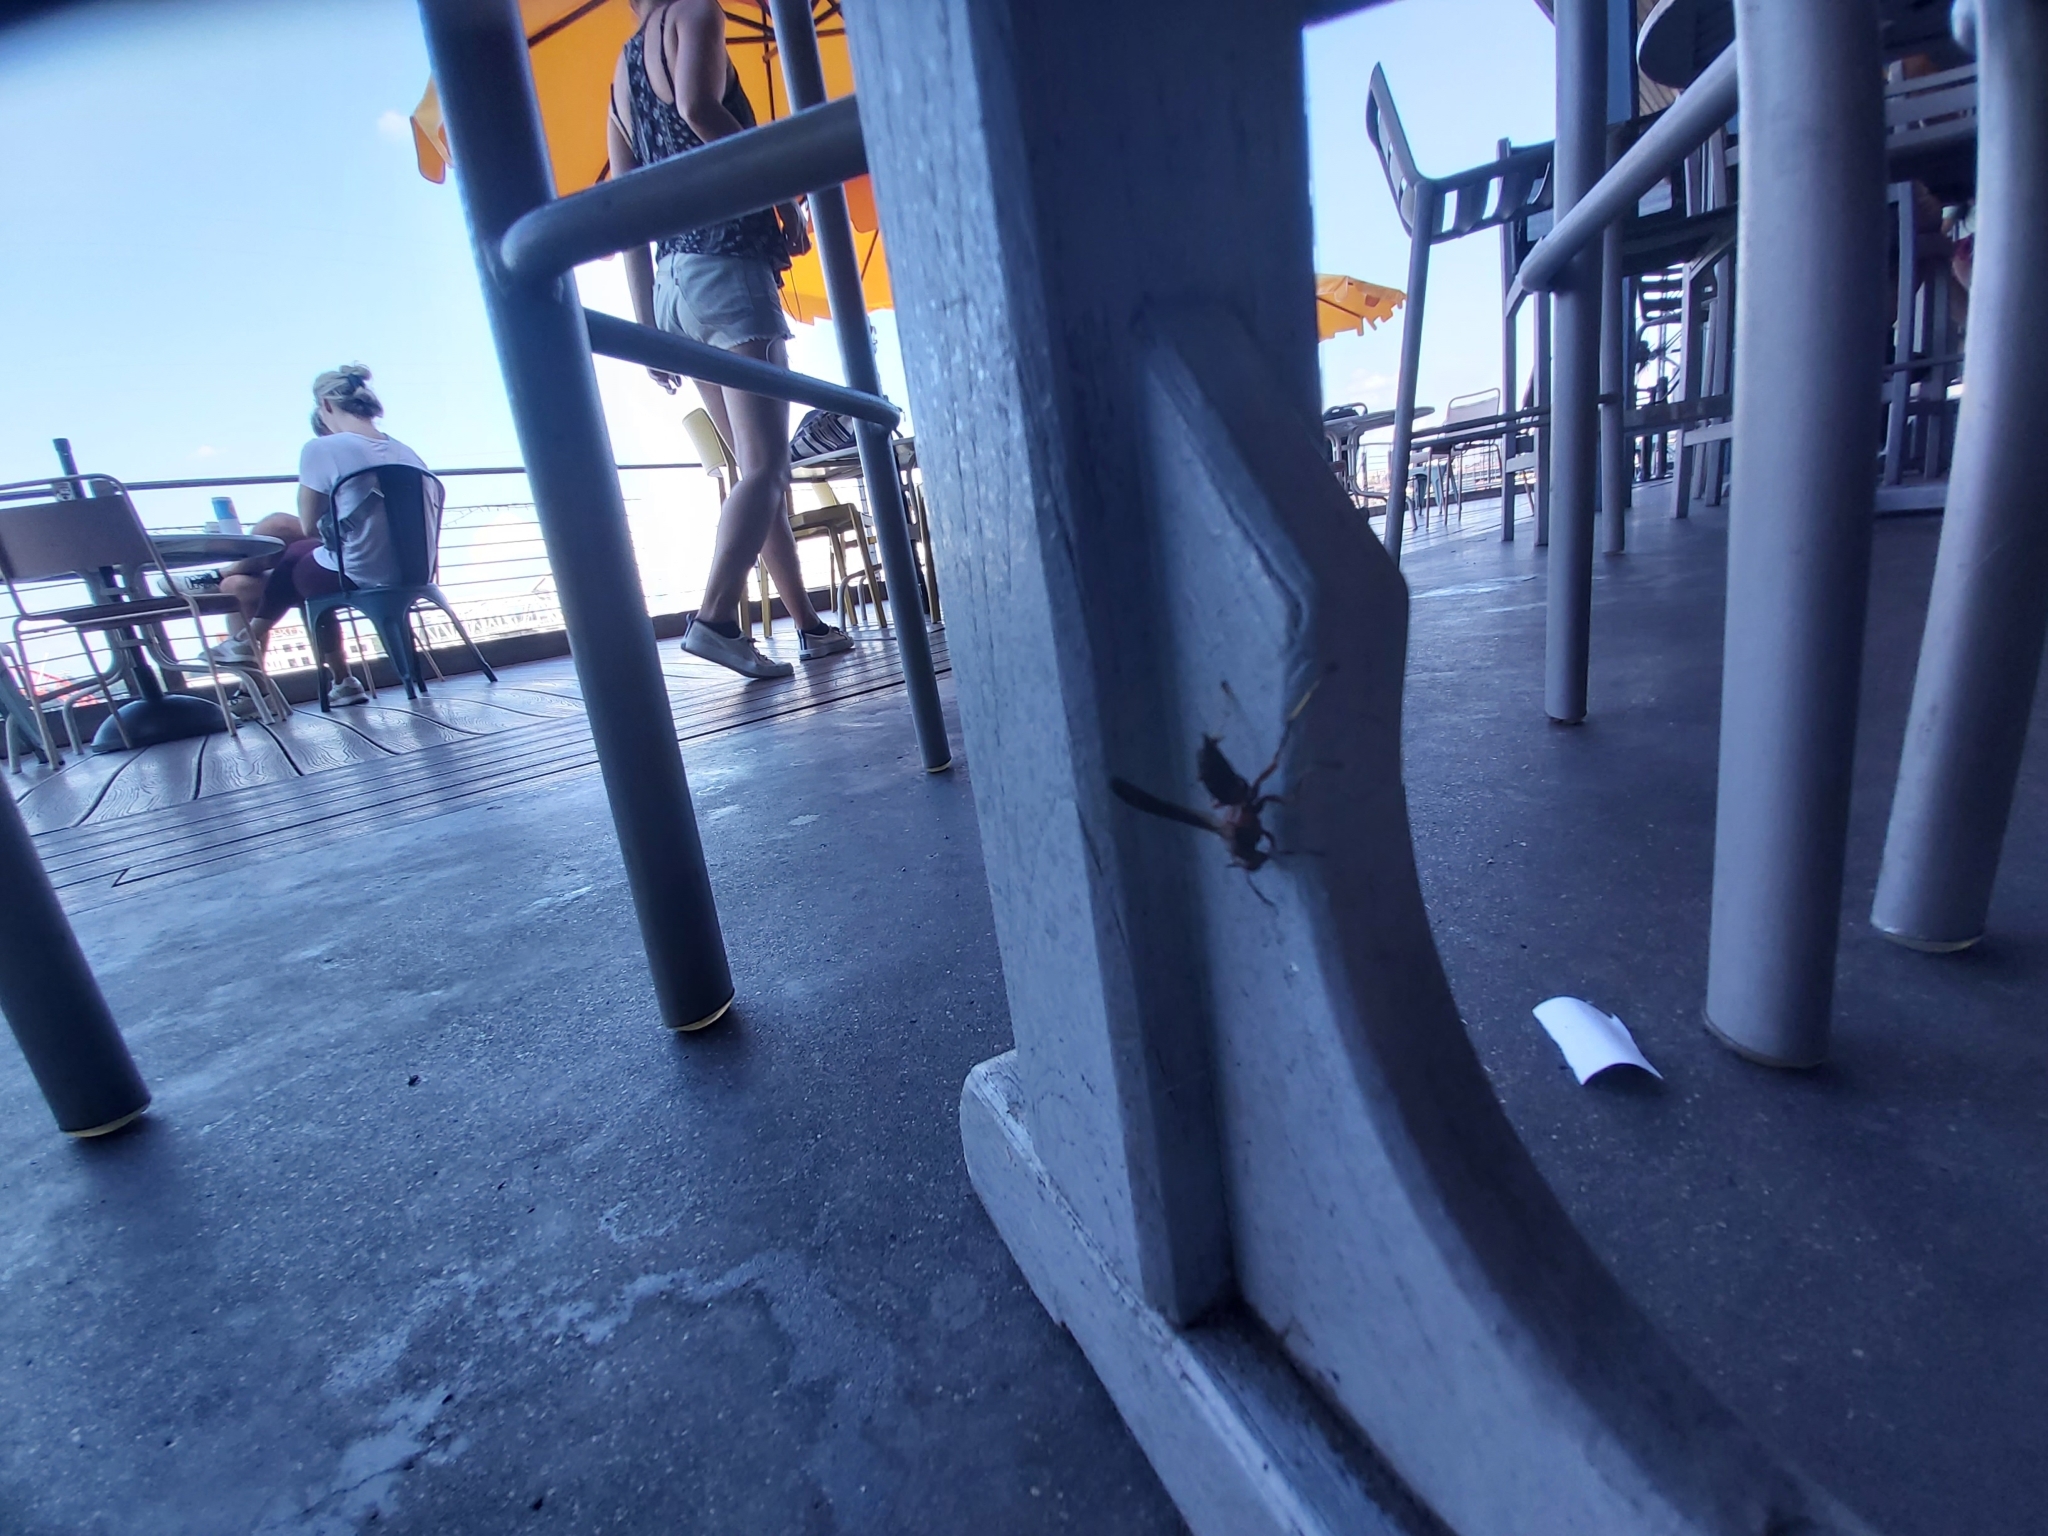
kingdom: Animalia
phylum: Arthropoda
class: Insecta
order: Hymenoptera
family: Vespidae
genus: Fuscopolistes
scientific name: Fuscopolistes
